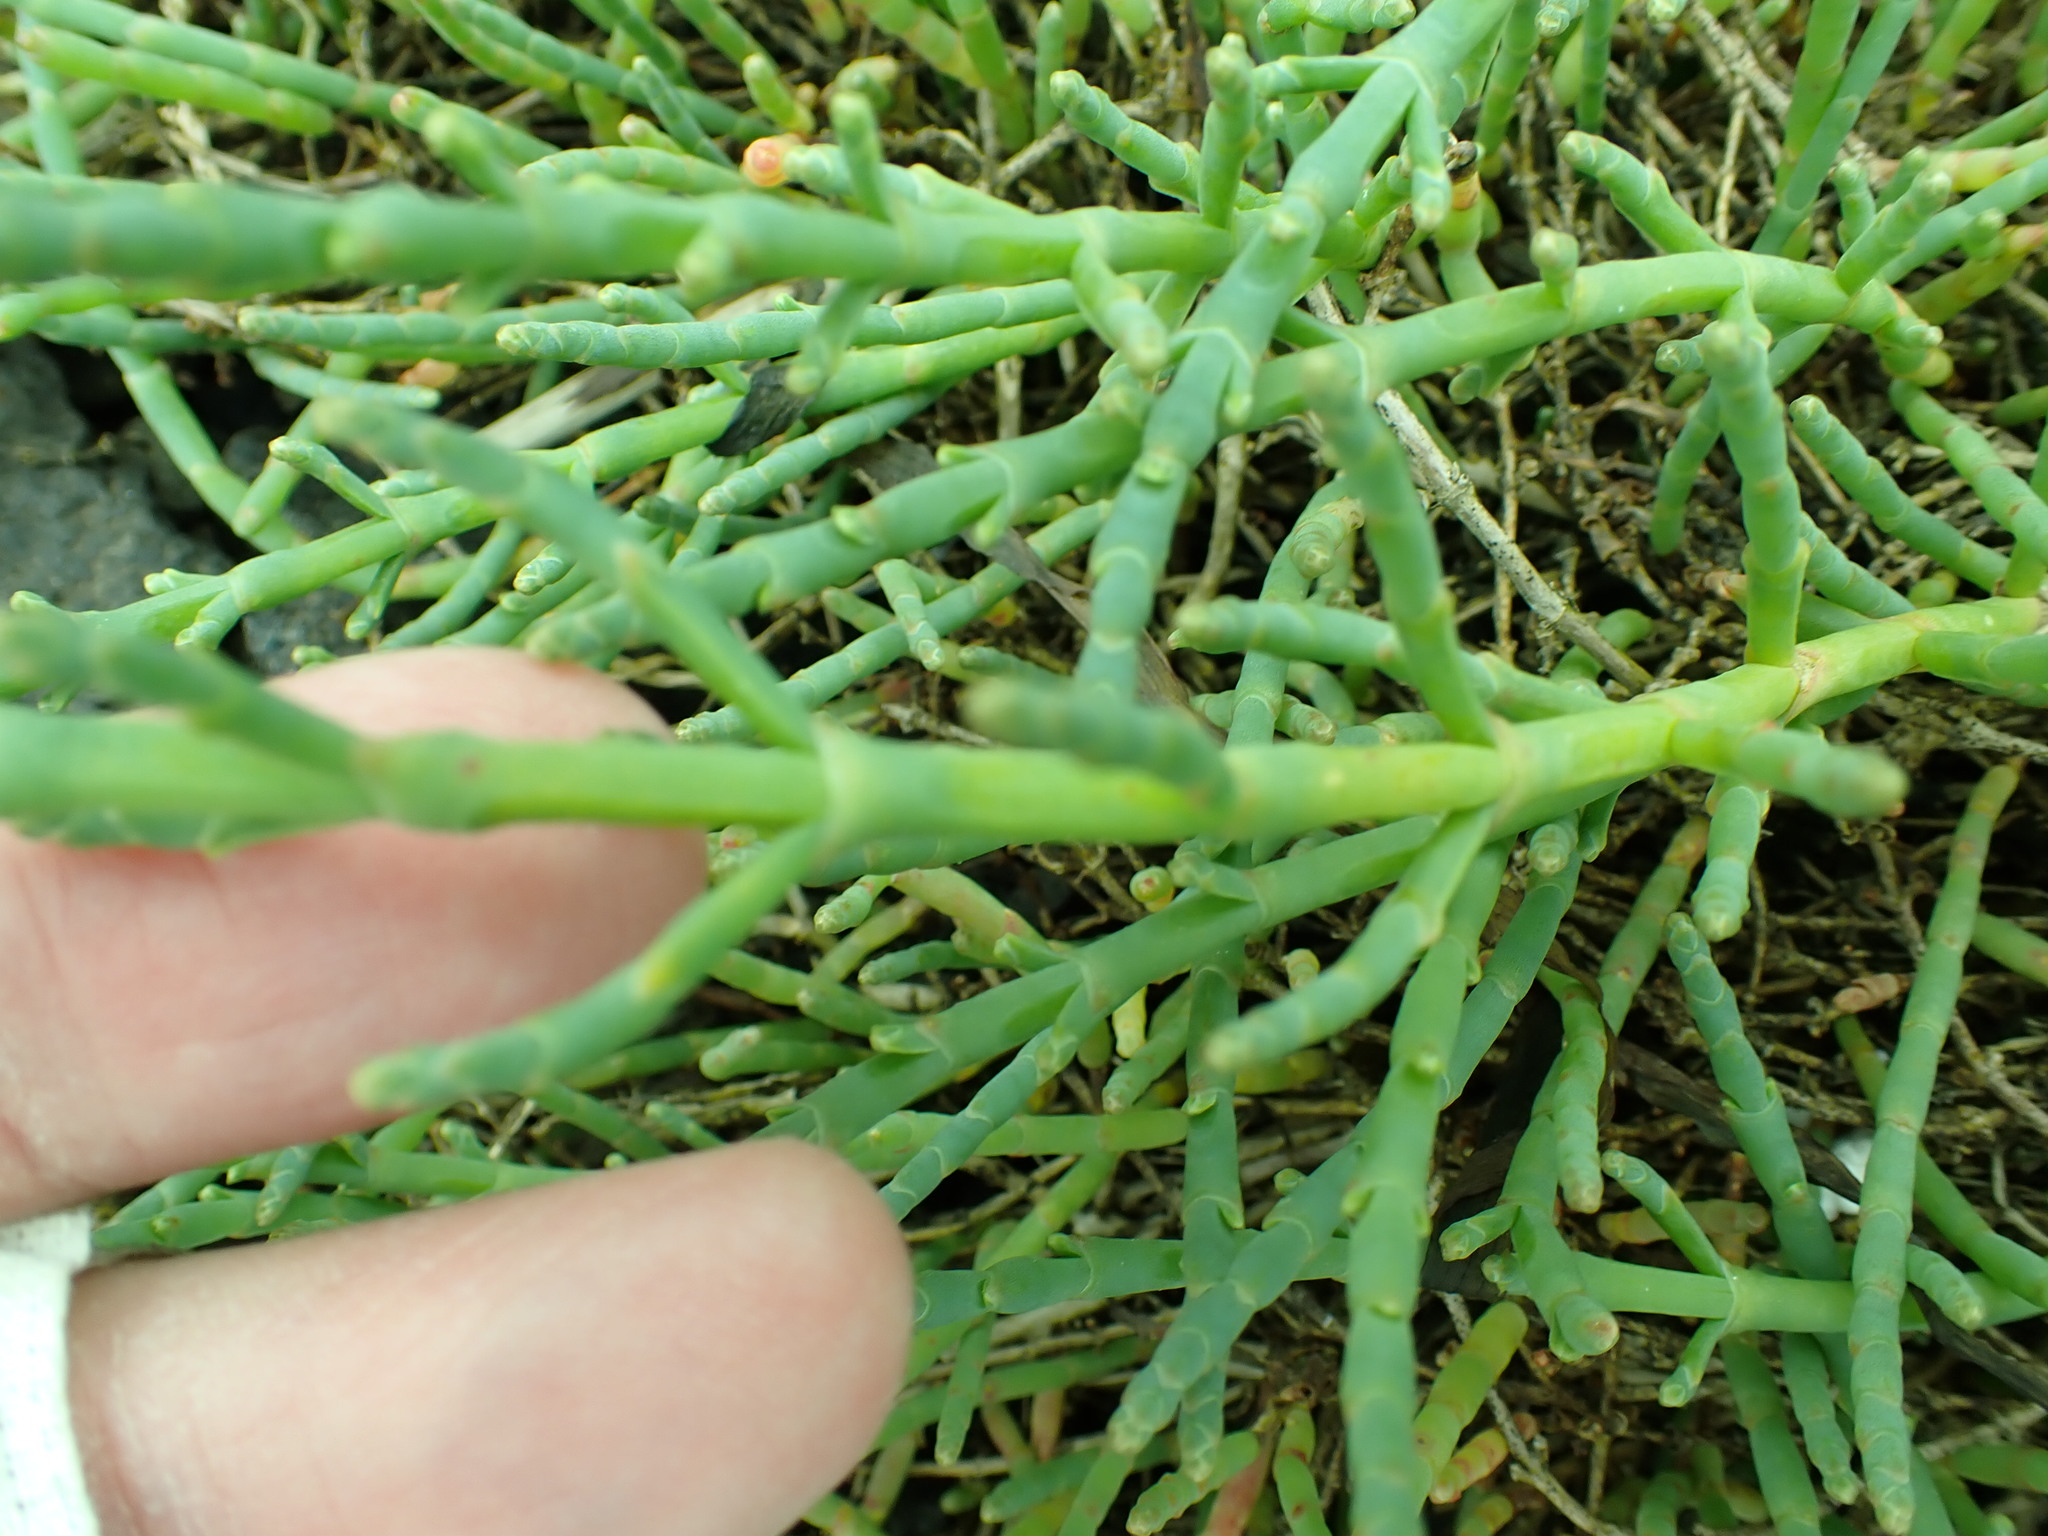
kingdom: Plantae
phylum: Tracheophyta
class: Magnoliopsida
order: Caryophyllales
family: Amaranthaceae
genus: Salicornia
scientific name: Salicornia pacifica
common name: Pacific glasswort
